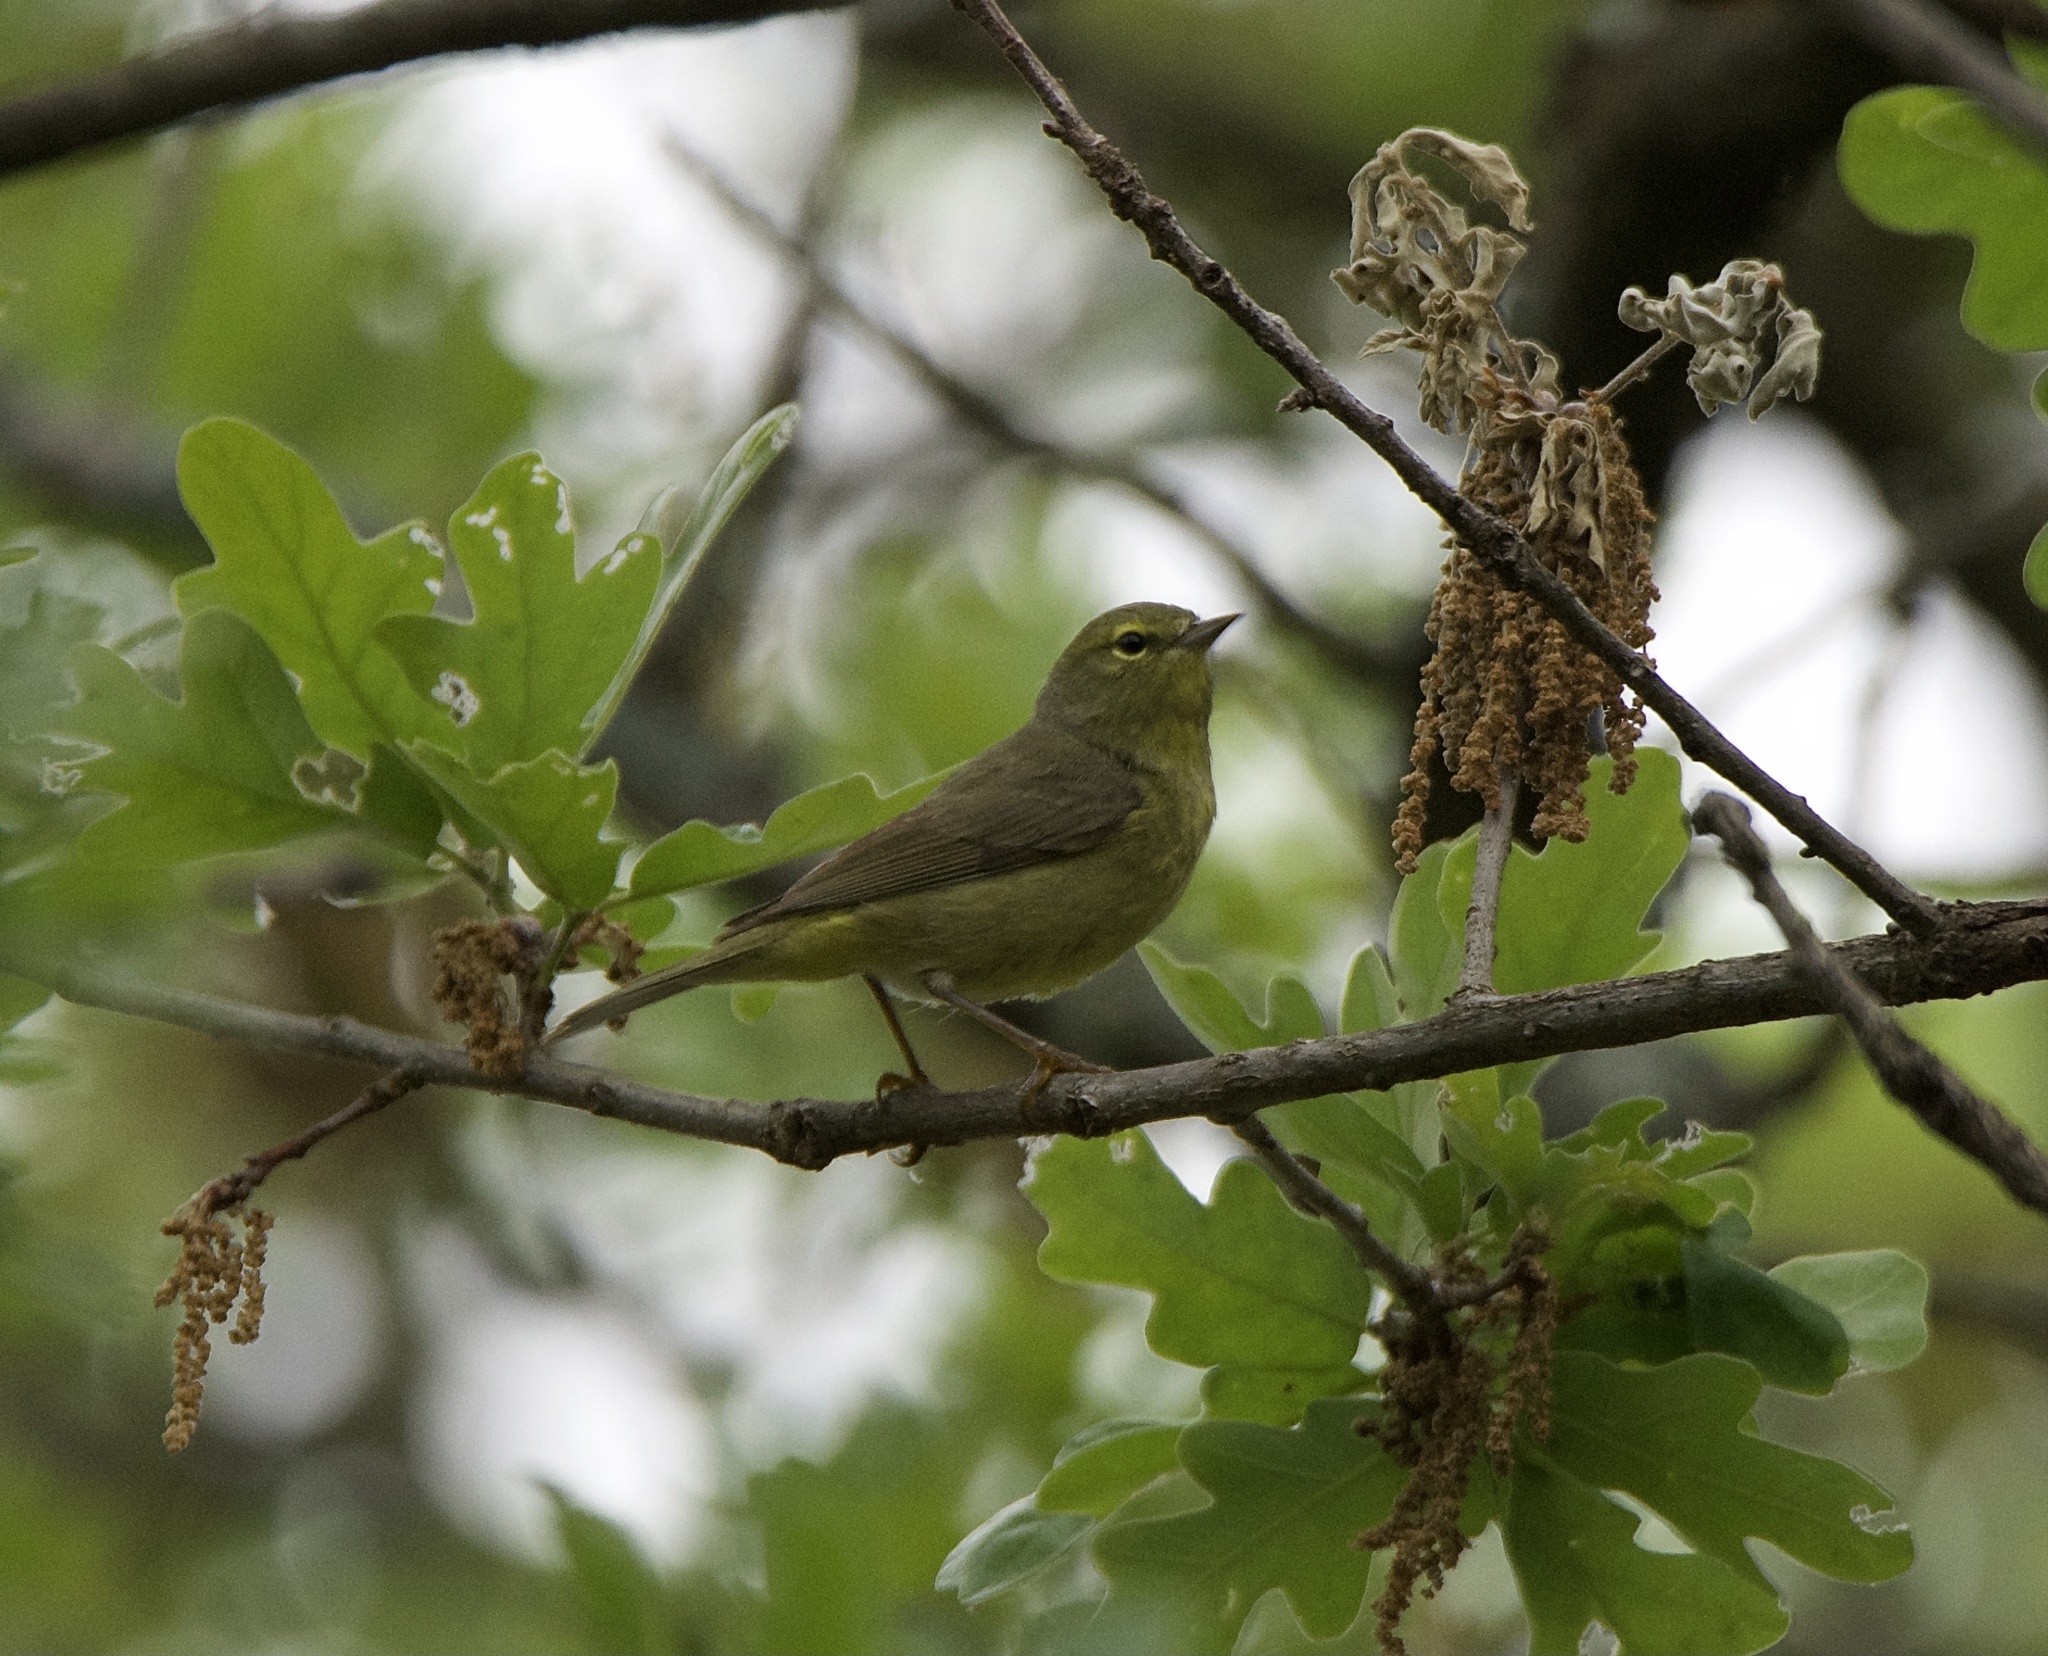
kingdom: Animalia
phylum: Chordata
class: Aves
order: Passeriformes
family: Parulidae
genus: Leiothlypis
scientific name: Leiothlypis celata
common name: Orange-crowned warbler
